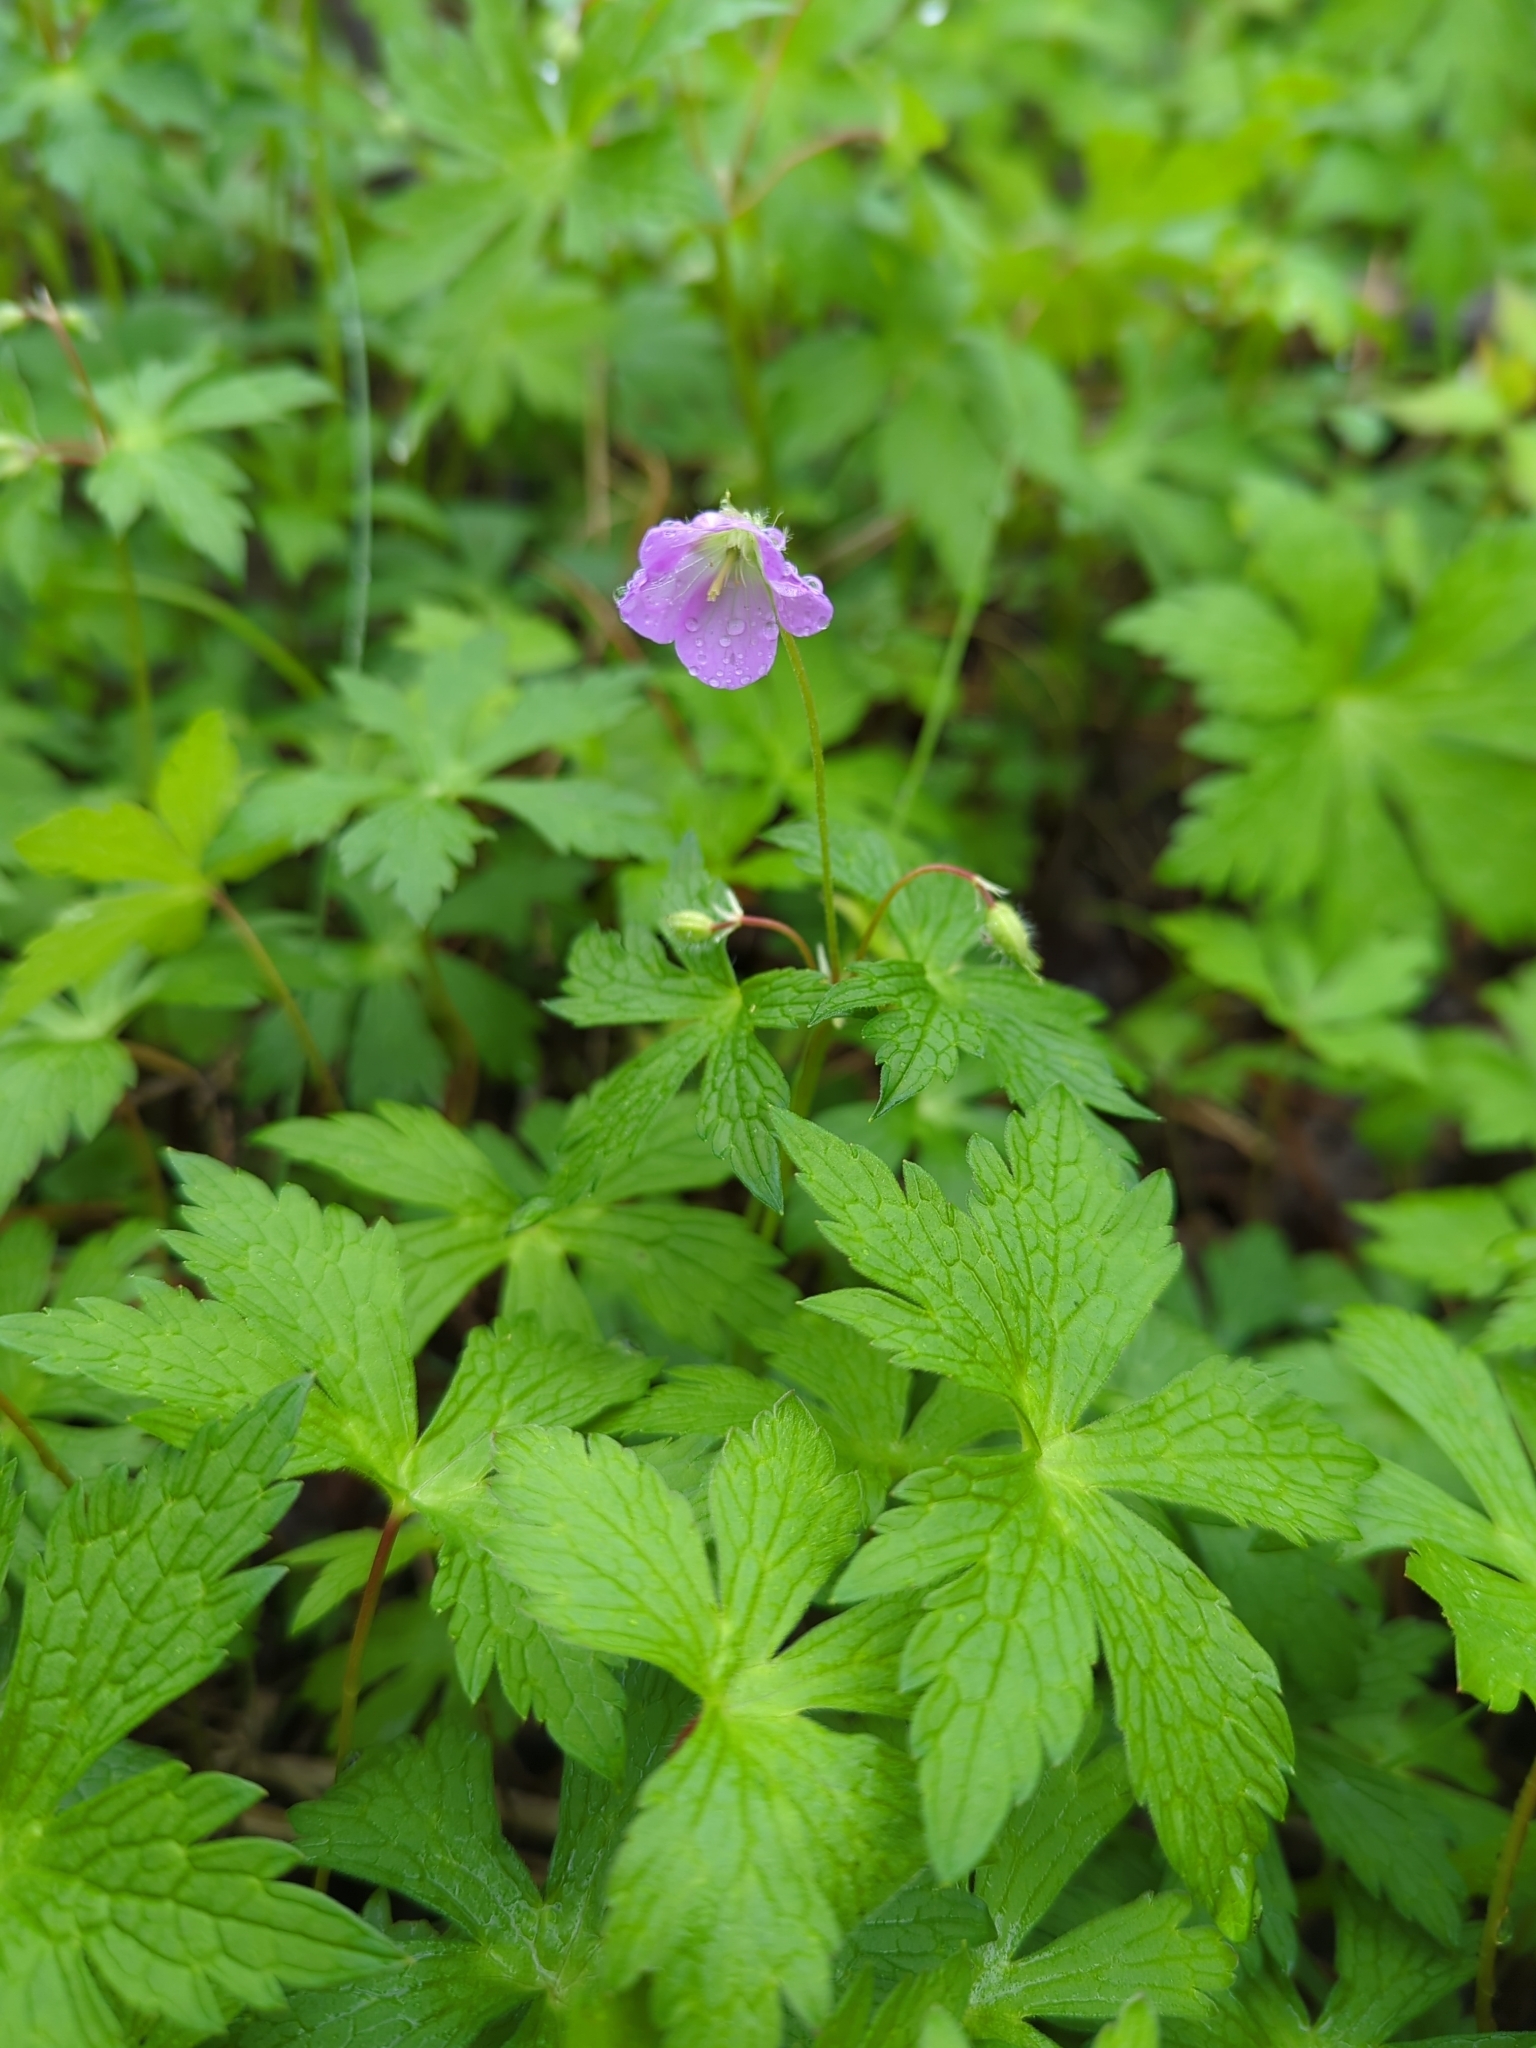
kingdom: Plantae
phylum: Tracheophyta
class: Magnoliopsida
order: Geraniales
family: Geraniaceae
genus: Geranium
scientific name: Geranium maculatum
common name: Spotted geranium
